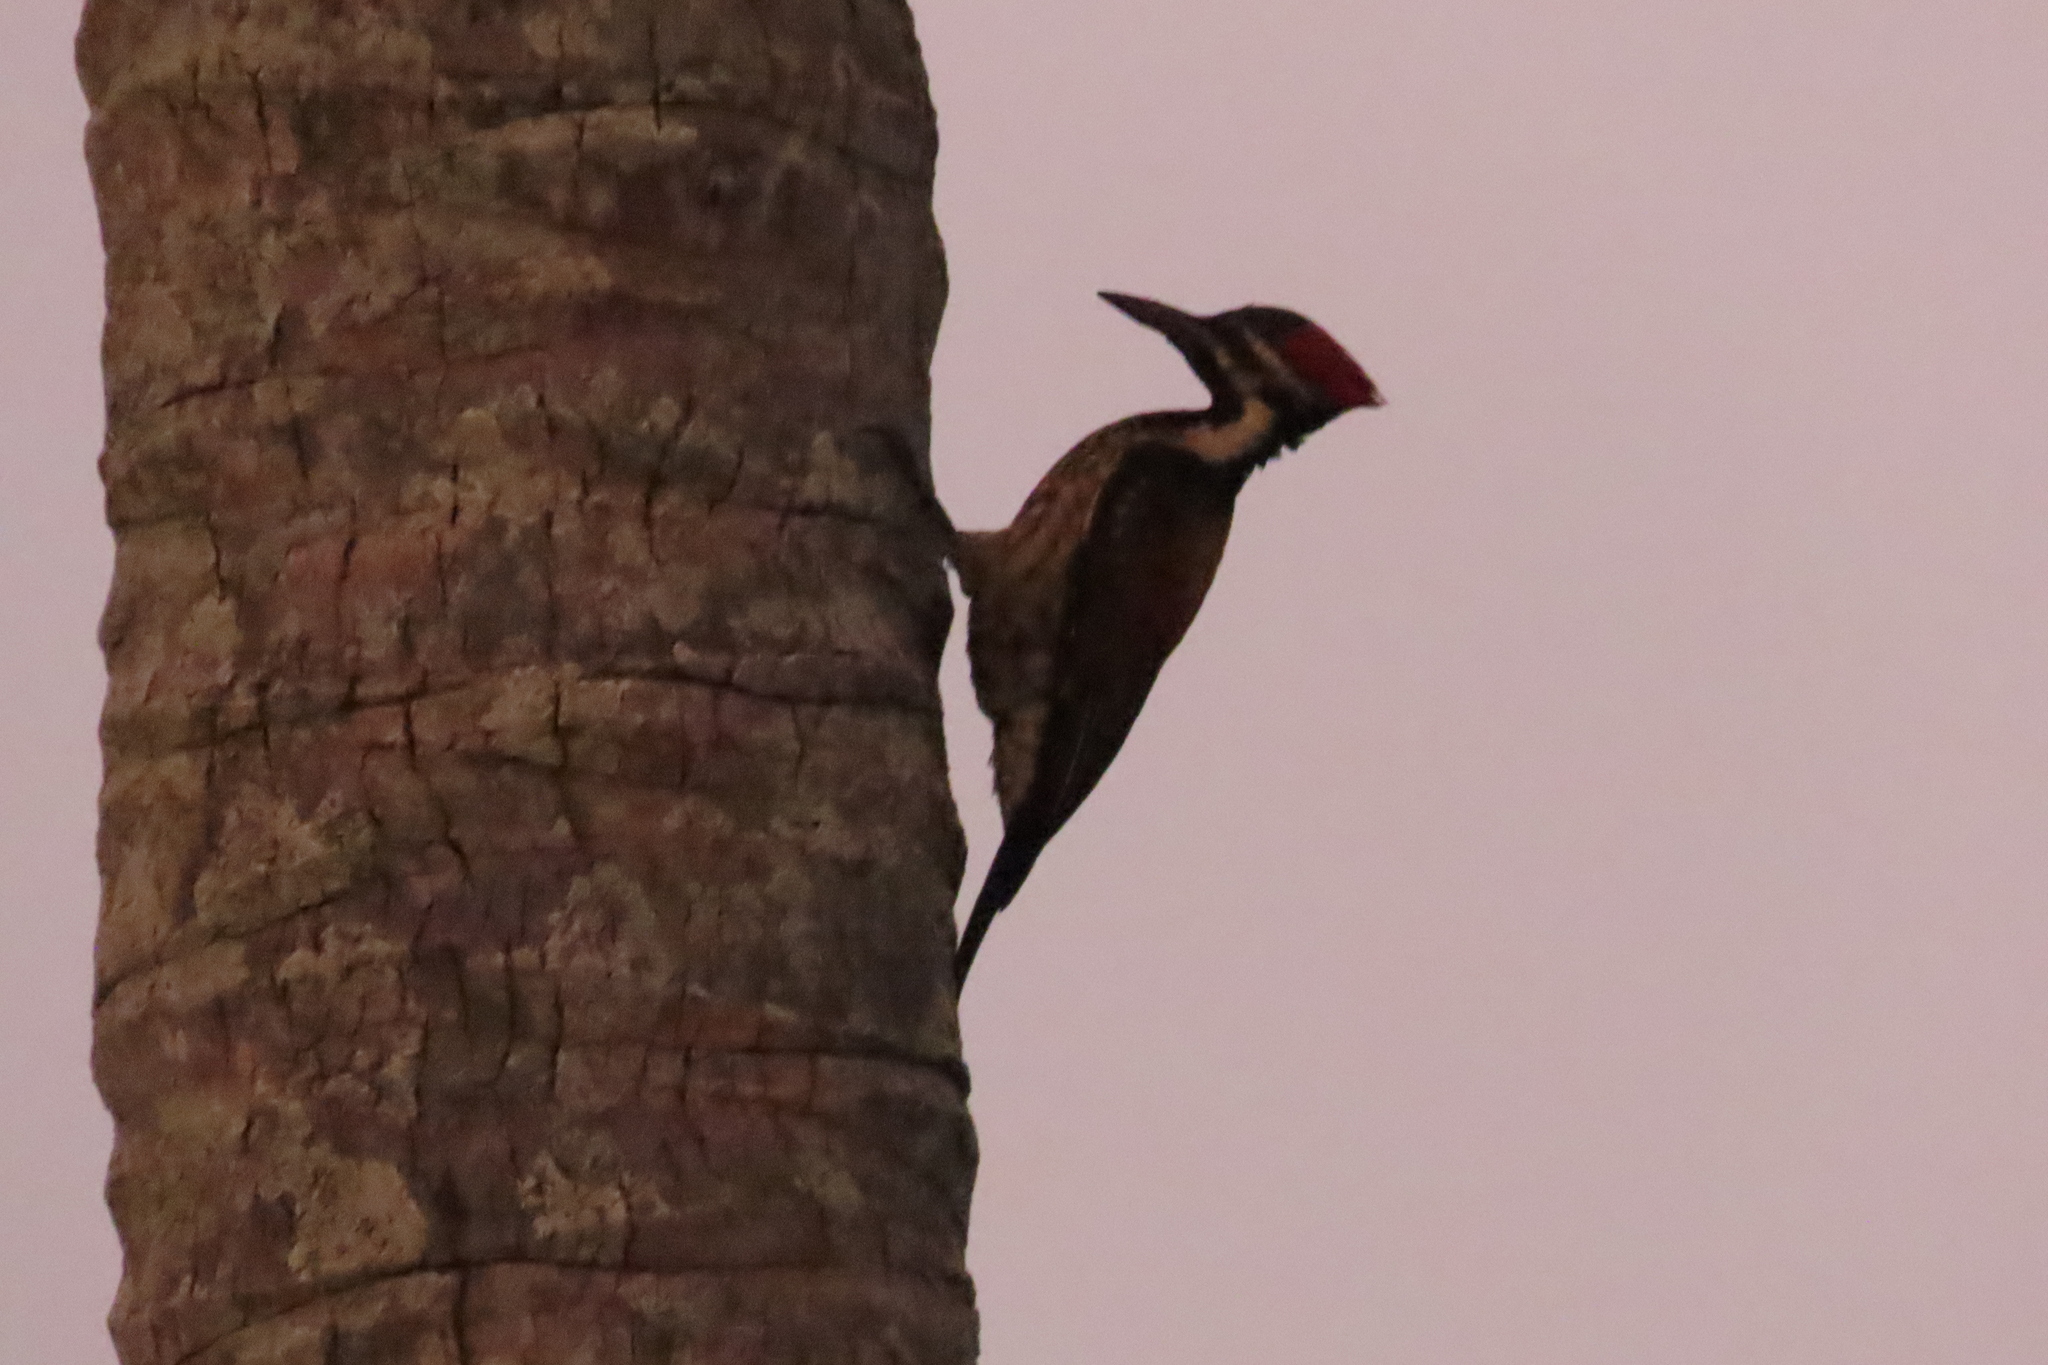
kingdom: Animalia
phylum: Chordata
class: Aves
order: Piciformes
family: Picidae
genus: Dinopium
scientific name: Dinopium benghalense
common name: Black-rumped flameback
